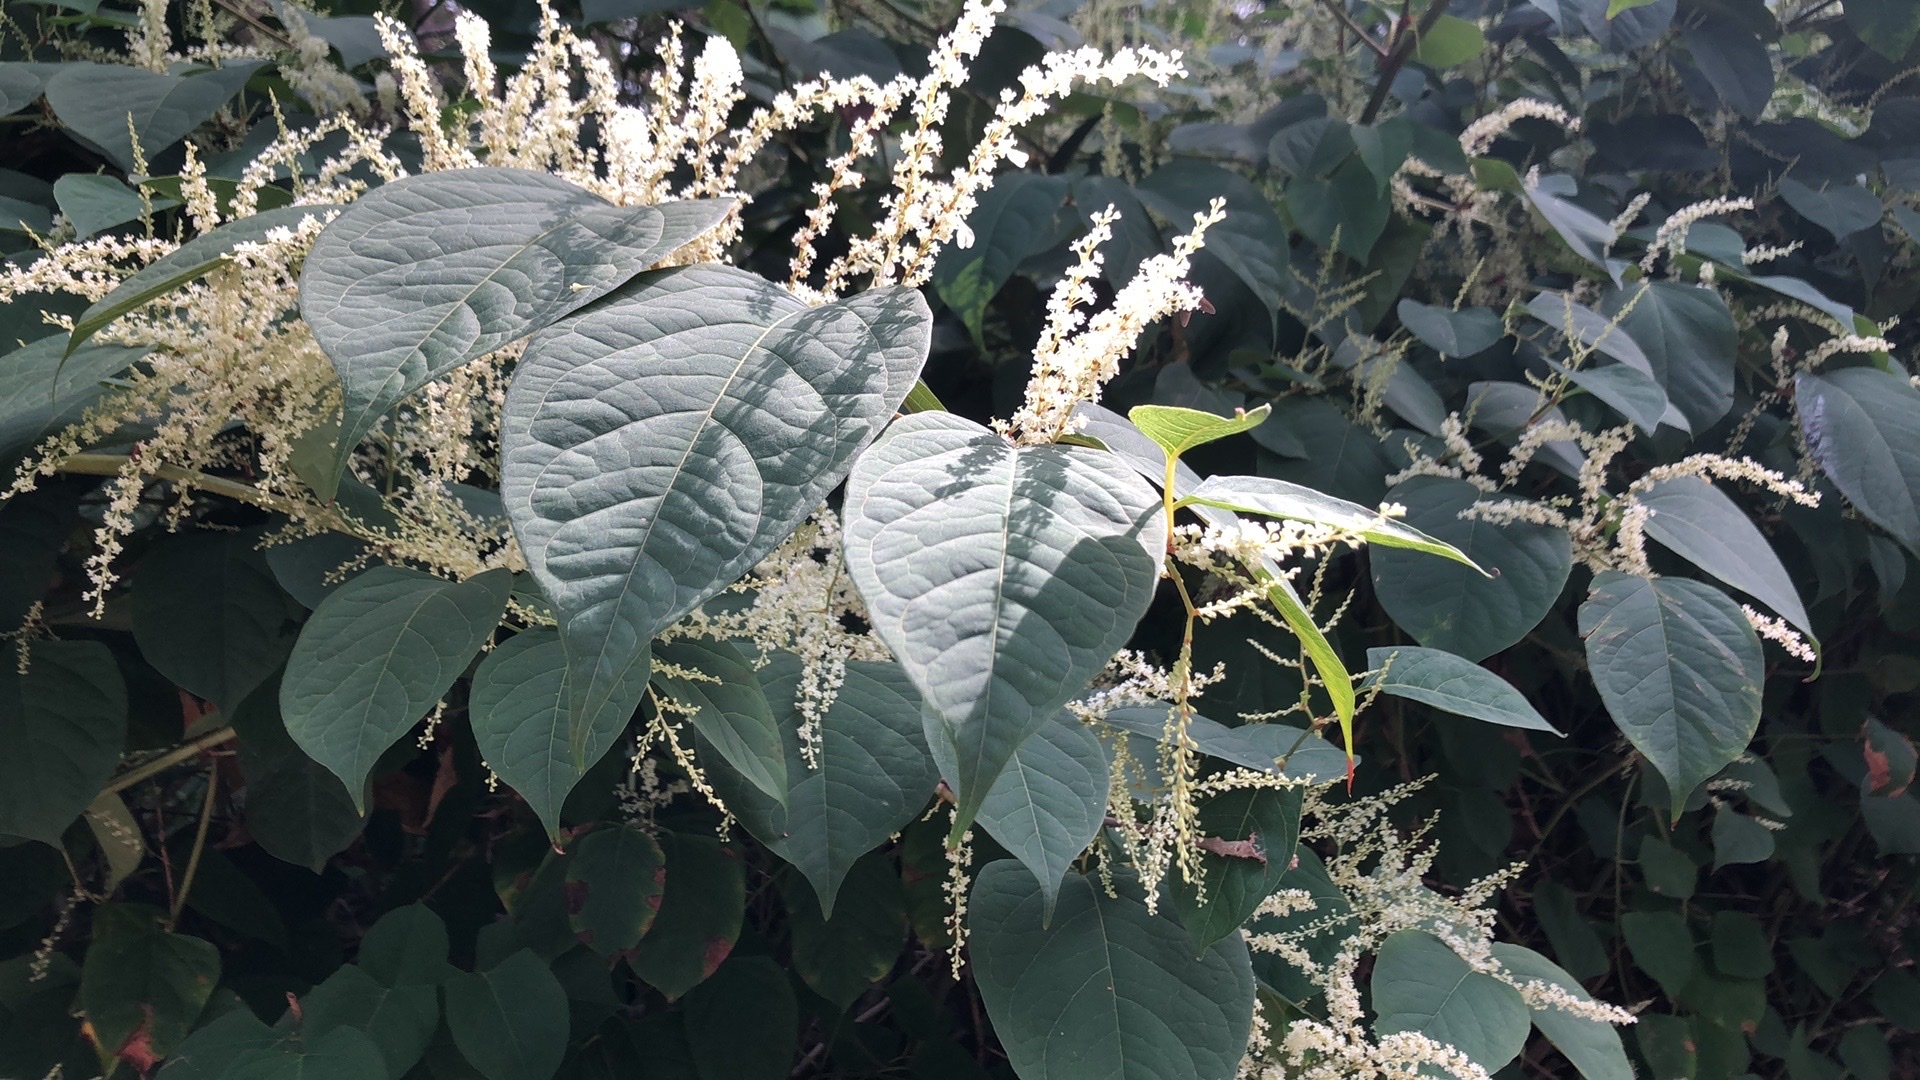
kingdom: Plantae
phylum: Tracheophyta
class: Magnoliopsida
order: Caryophyllales
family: Polygonaceae
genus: Reynoutria
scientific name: Reynoutria sachalinensis
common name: Giant knotweed
